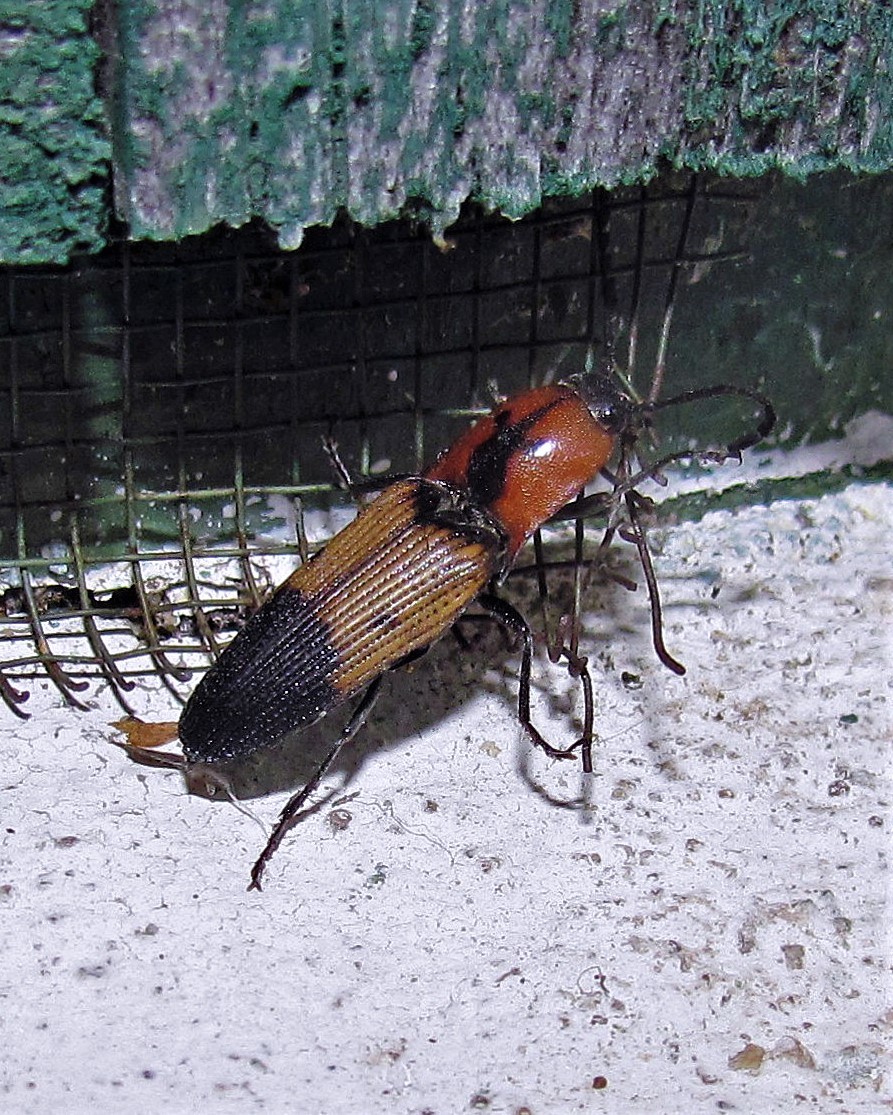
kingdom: Animalia
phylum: Arthropoda
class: Insecta
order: Coleoptera
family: Elateridae
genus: Monocrepidius
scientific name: Monocrepidius
